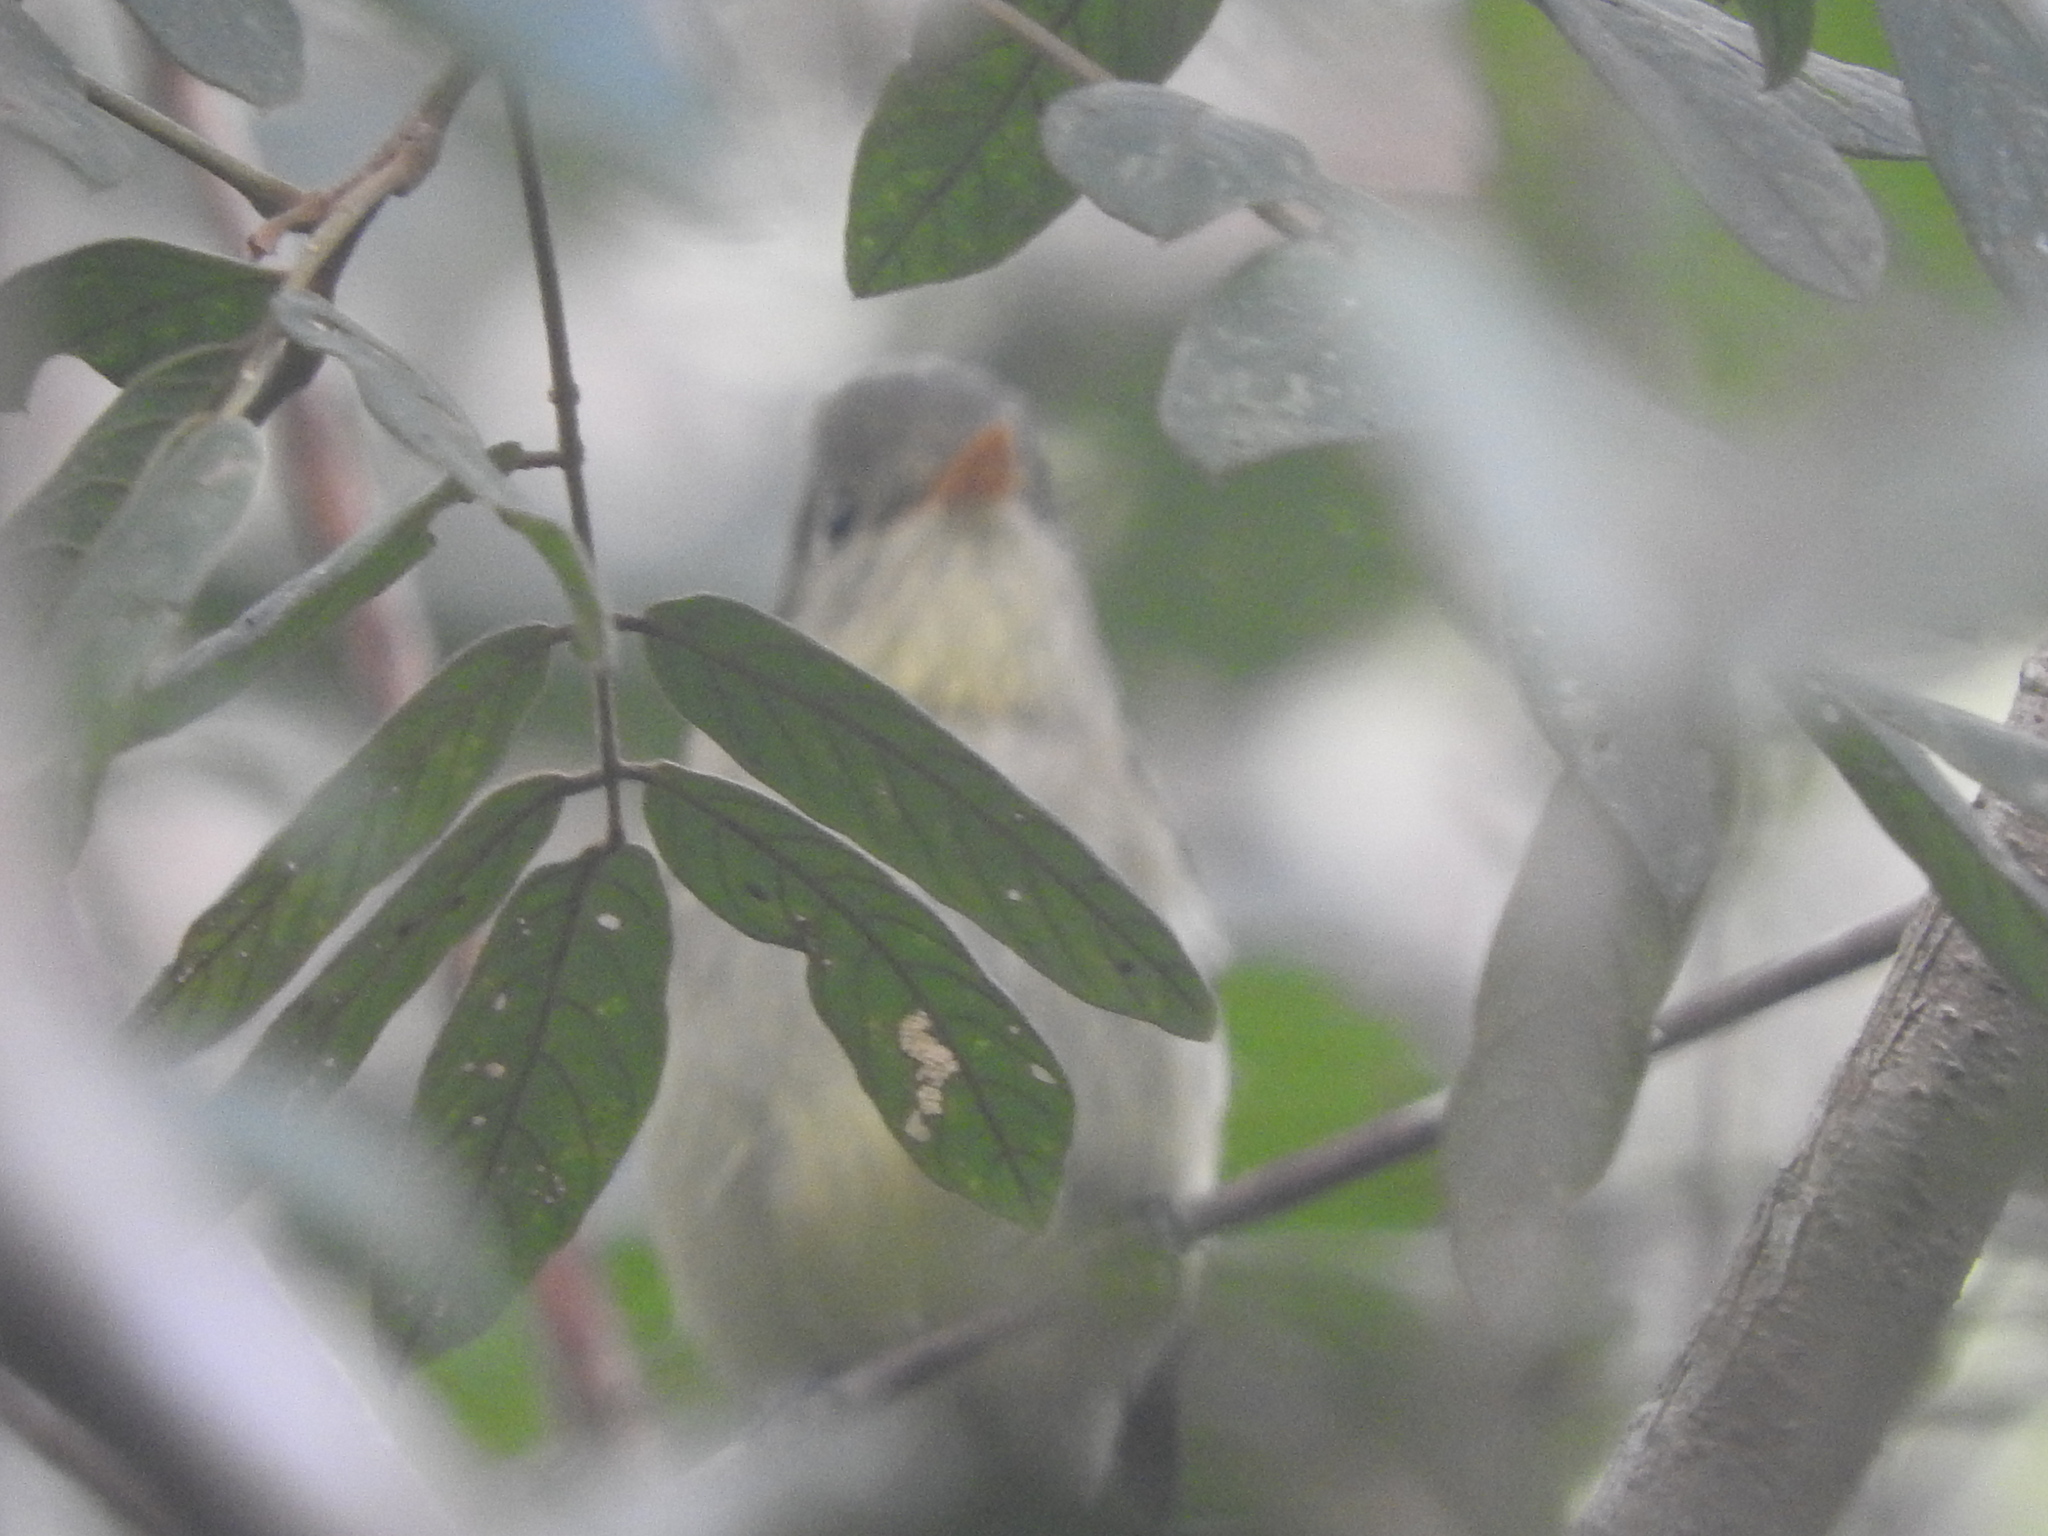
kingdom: Animalia
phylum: Chordata
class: Aves
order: Passeriformes
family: Vireonidae
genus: Hylophilus
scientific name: Hylophilus decurtatus
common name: Lesser greenlet
